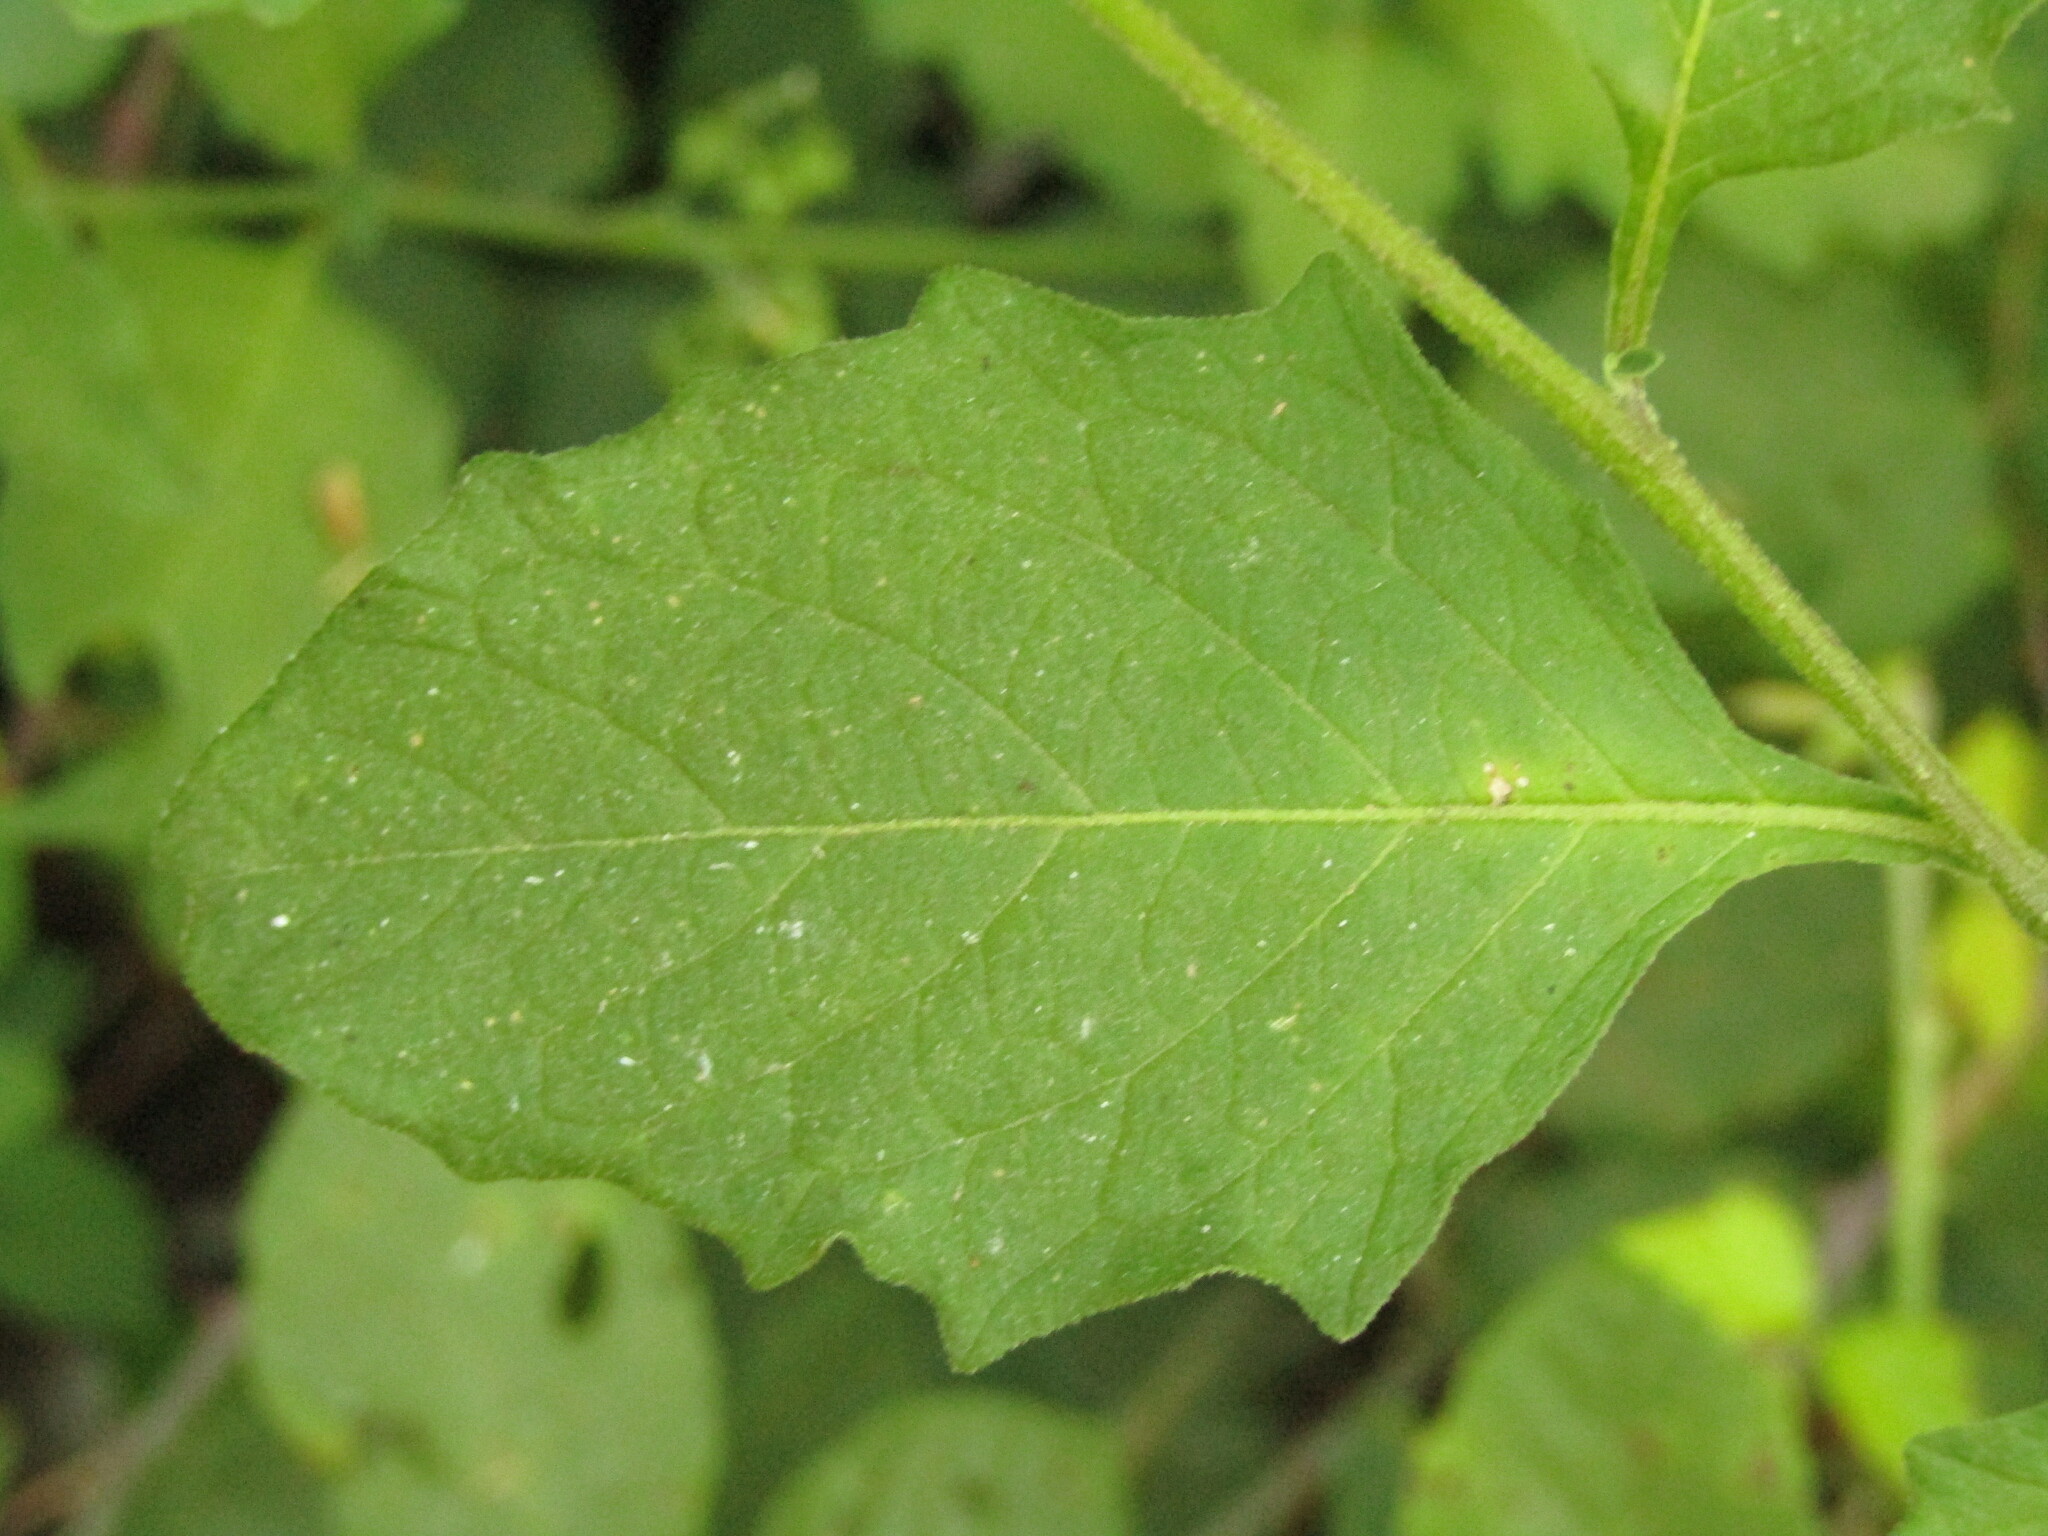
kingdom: Plantae
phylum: Tracheophyta
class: Magnoliopsida
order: Solanales
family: Solanaceae
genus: Solanum
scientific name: Solanum furcatum
